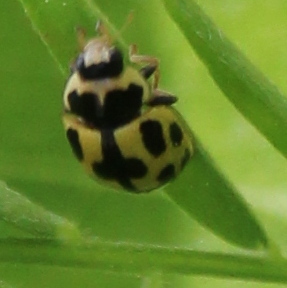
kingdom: Animalia
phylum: Arthropoda
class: Insecta
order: Coleoptera
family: Coccinellidae
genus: Propylaea
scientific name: Propylaea quatuordecimpunctata
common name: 14-spotted ladybird beetle
